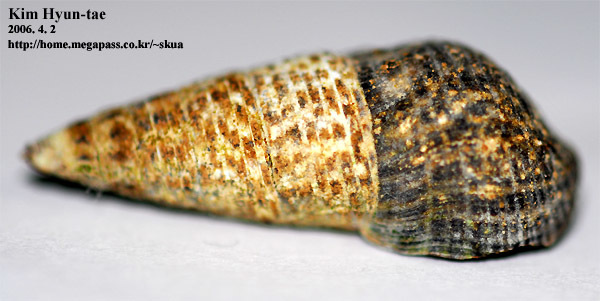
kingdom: Animalia
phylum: Mollusca
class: Gastropoda
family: Batillariidae
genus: Batillaria
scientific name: Batillaria attramentaria
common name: Japanese false cerith
